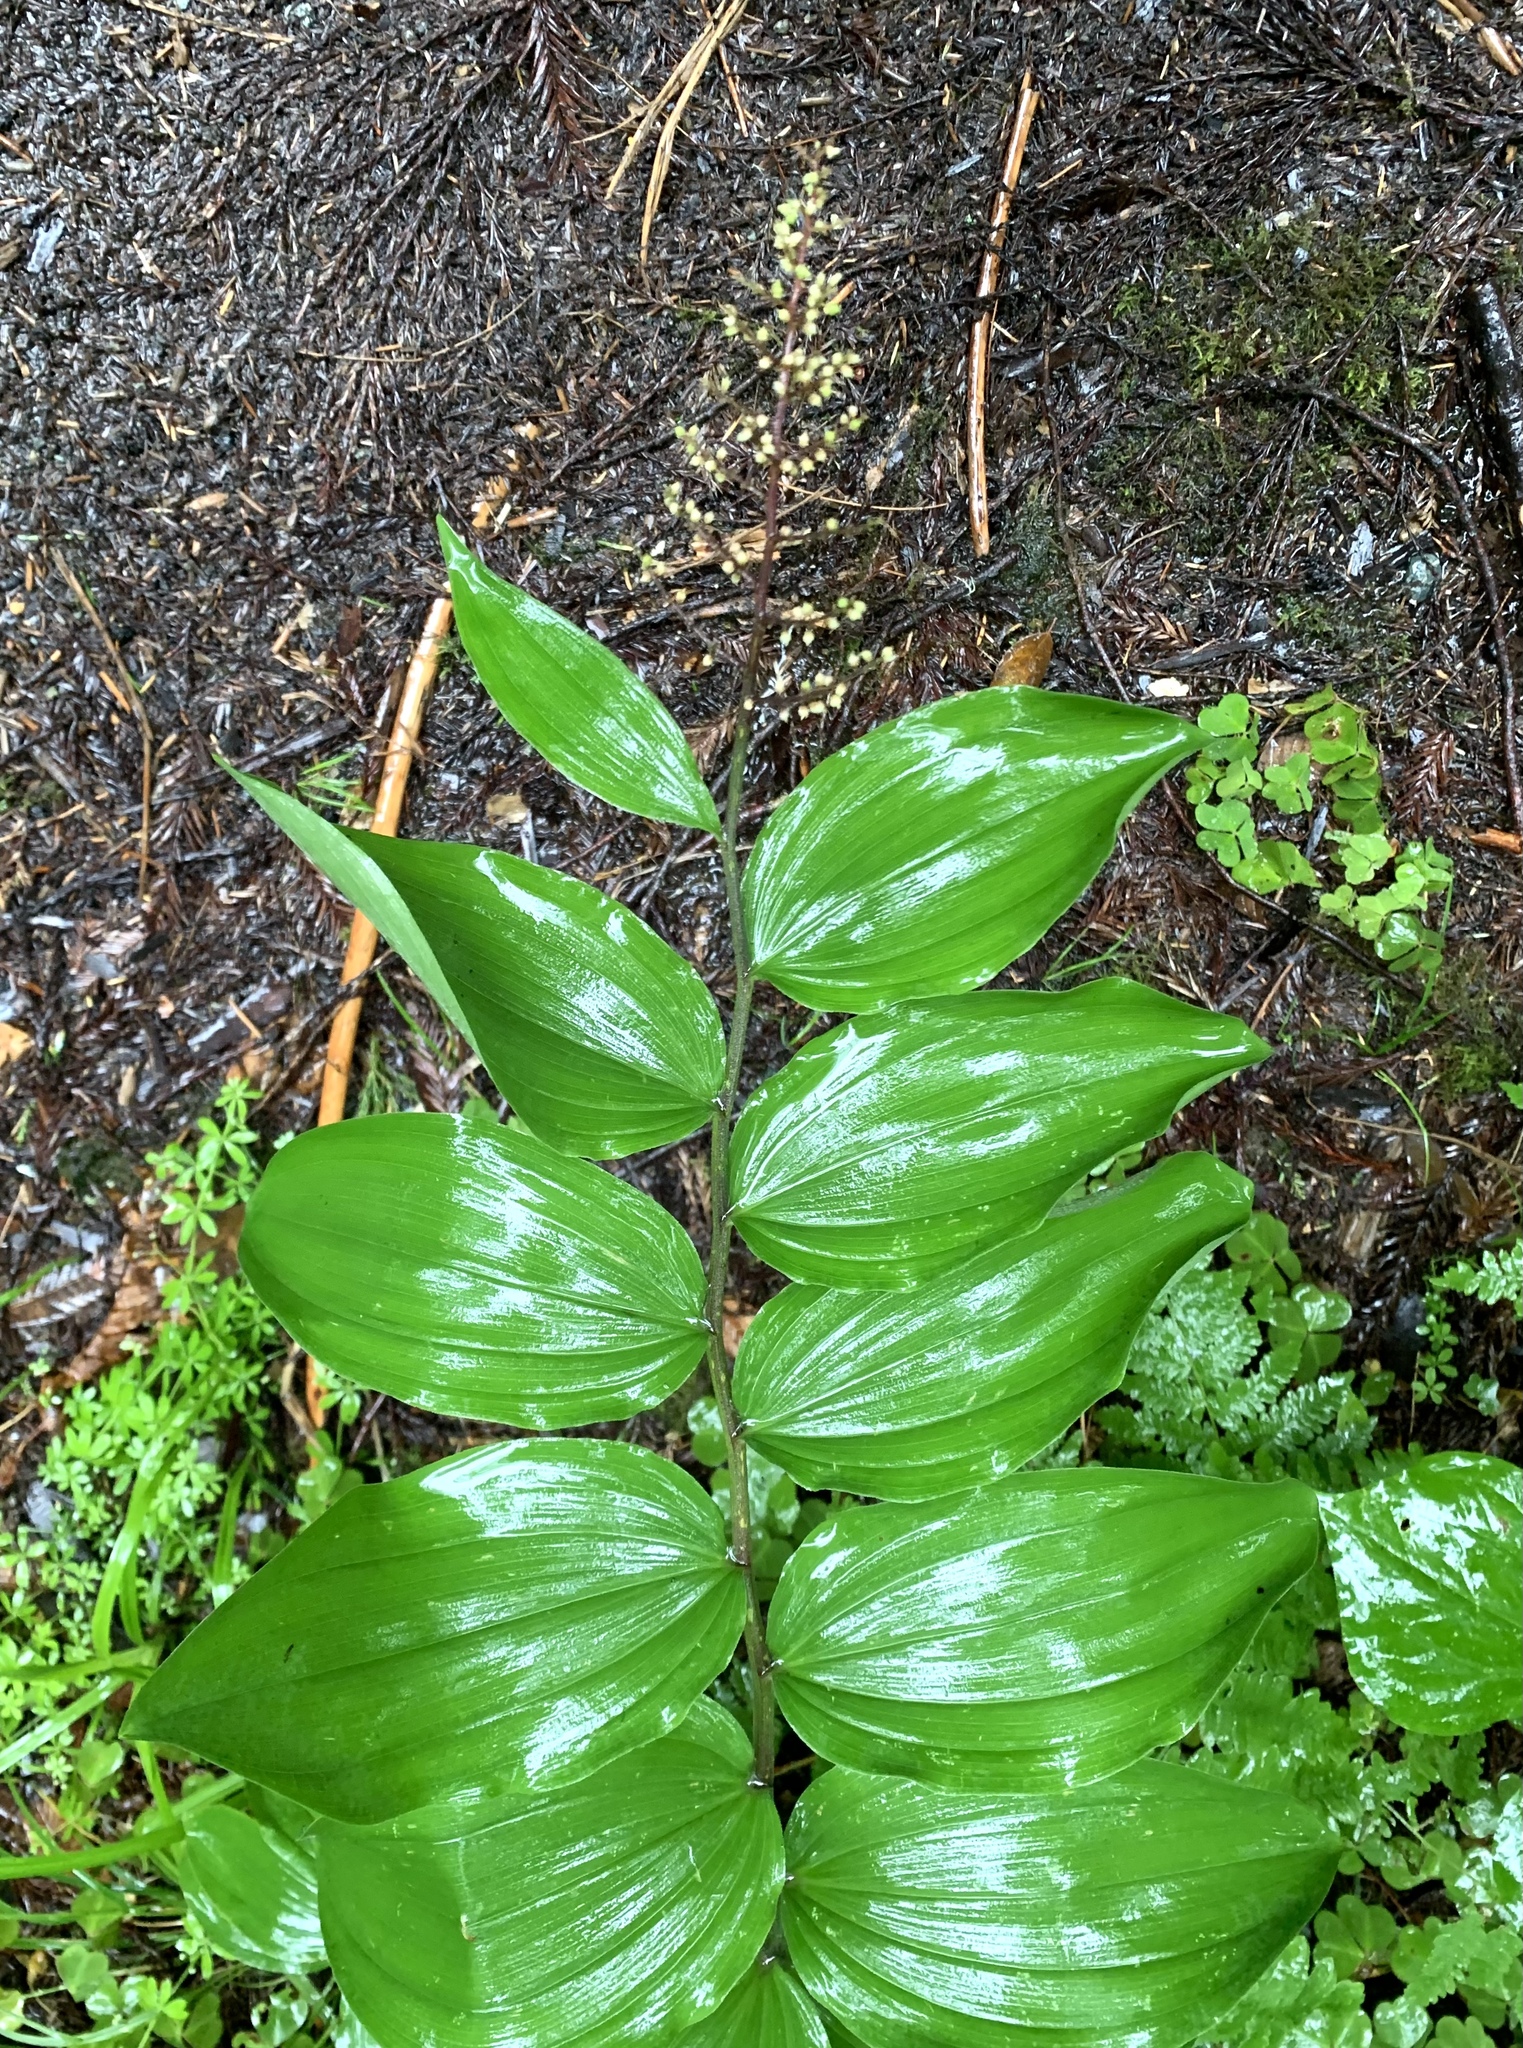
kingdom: Plantae
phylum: Tracheophyta
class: Liliopsida
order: Asparagales
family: Asparagaceae
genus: Maianthemum
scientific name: Maianthemum racemosum
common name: False spikenard
